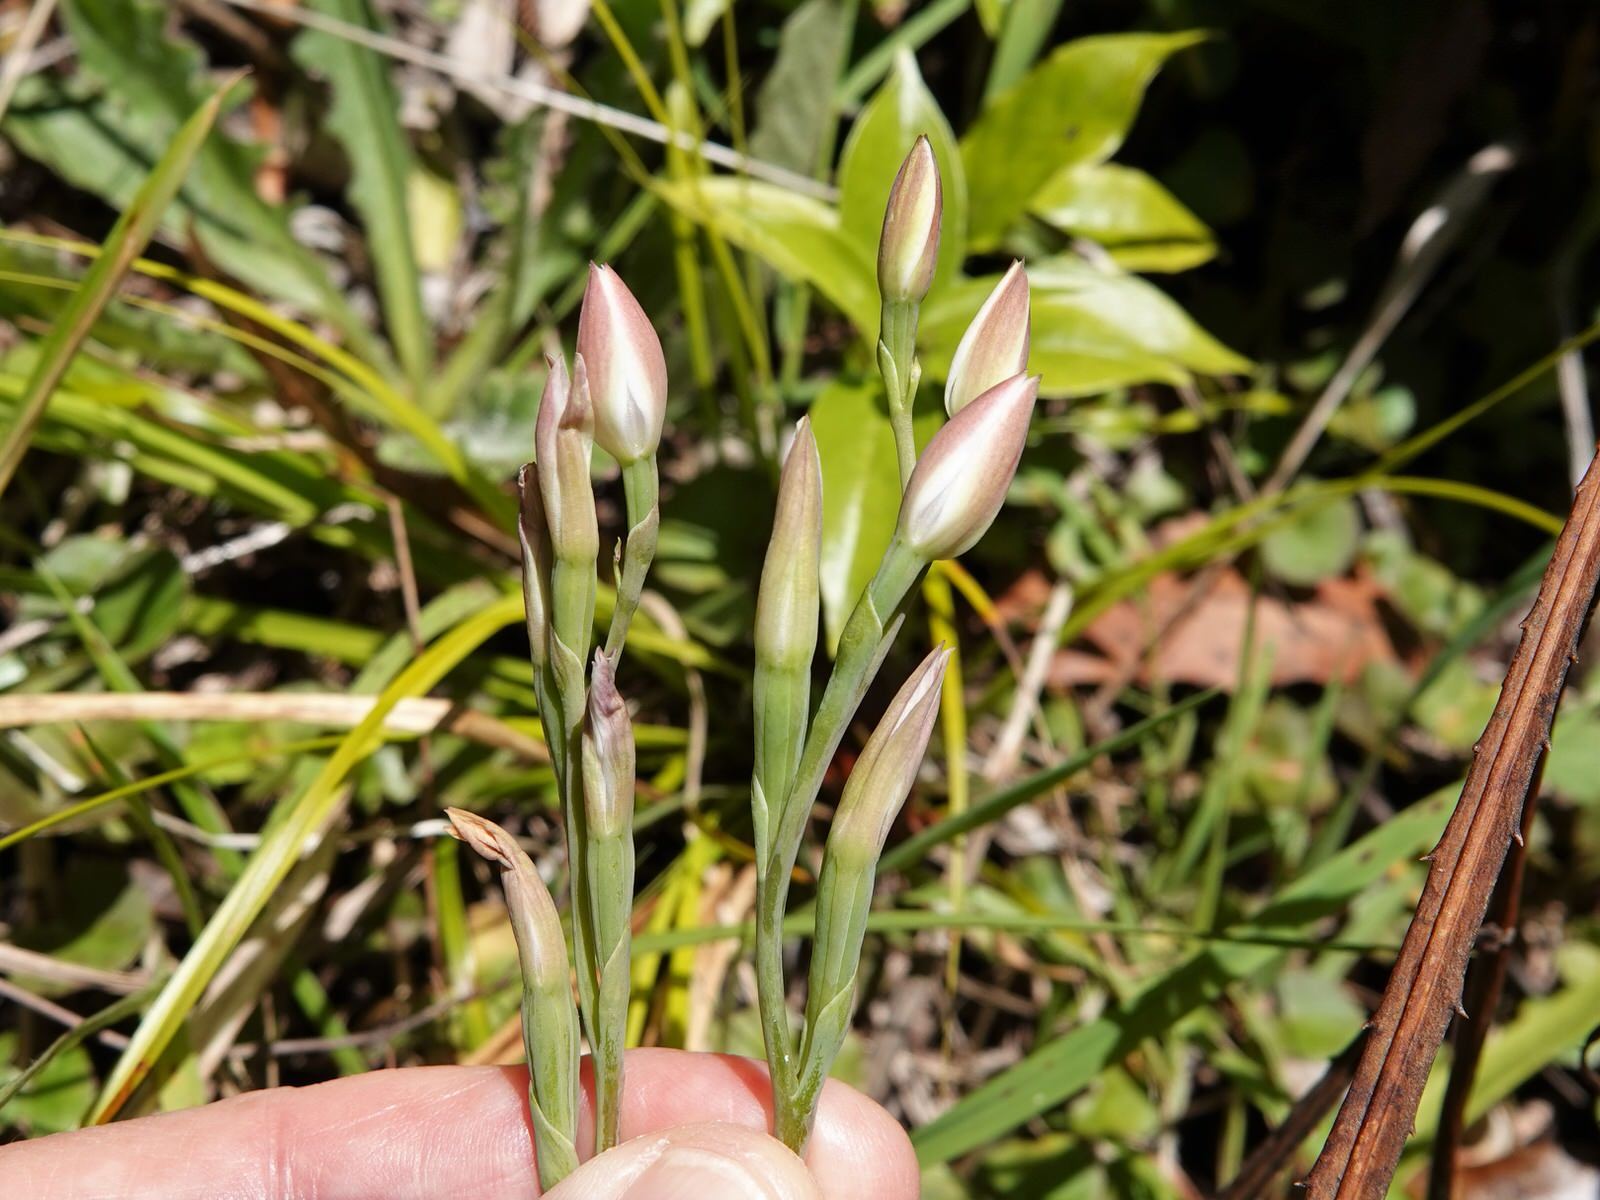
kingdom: Plantae
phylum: Tracheophyta
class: Liliopsida
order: Asparagales
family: Orchidaceae
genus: Thelymitra
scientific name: Thelymitra longifolia
